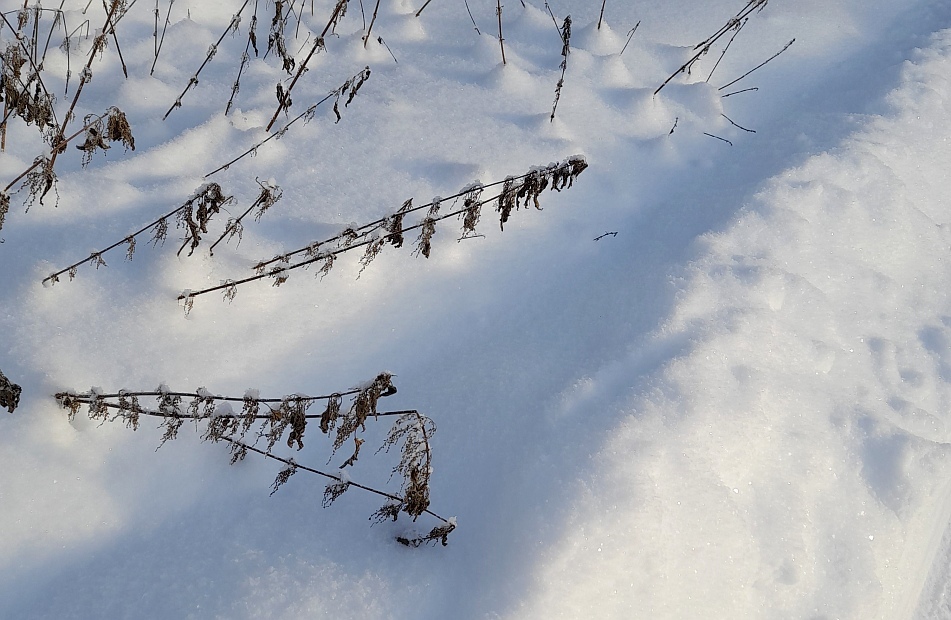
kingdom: Plantae
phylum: Tracheophyta
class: Magnoliopsida
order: Rosales
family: Urticaceae
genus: Urtica
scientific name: Urtica dioica
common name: Common nettle
